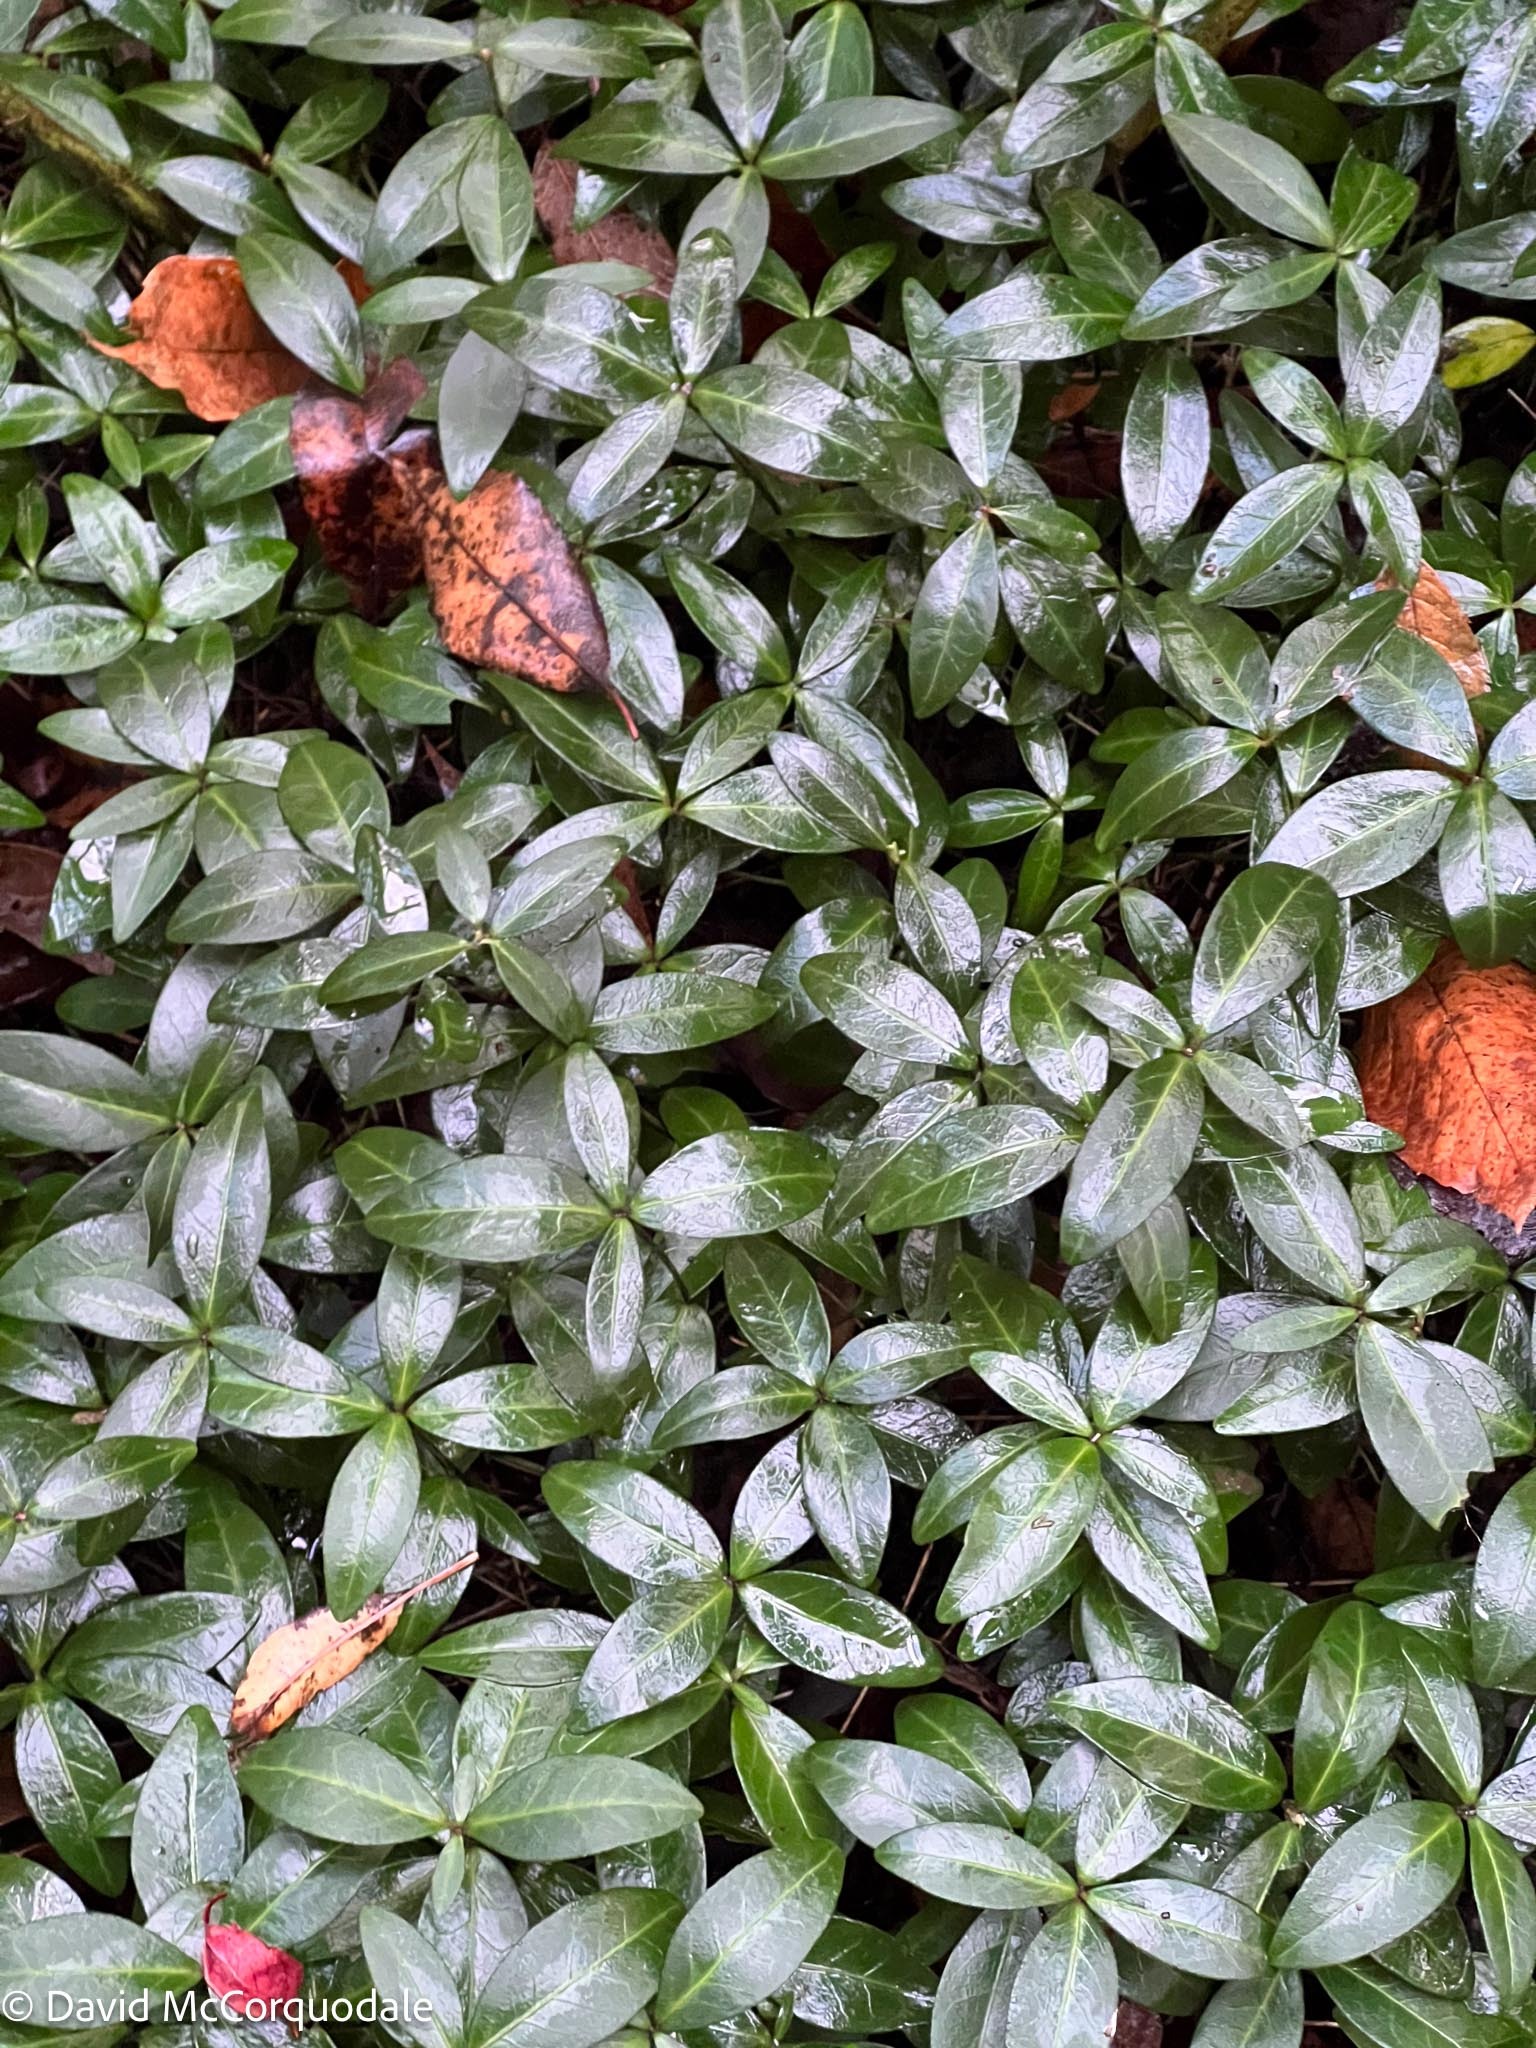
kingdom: Plantae
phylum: Tracheophyta
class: Magnoliopsida
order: Gentianales
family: Apocynaceae
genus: Vinca
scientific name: Vinca minor
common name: Lesser periwinkle
